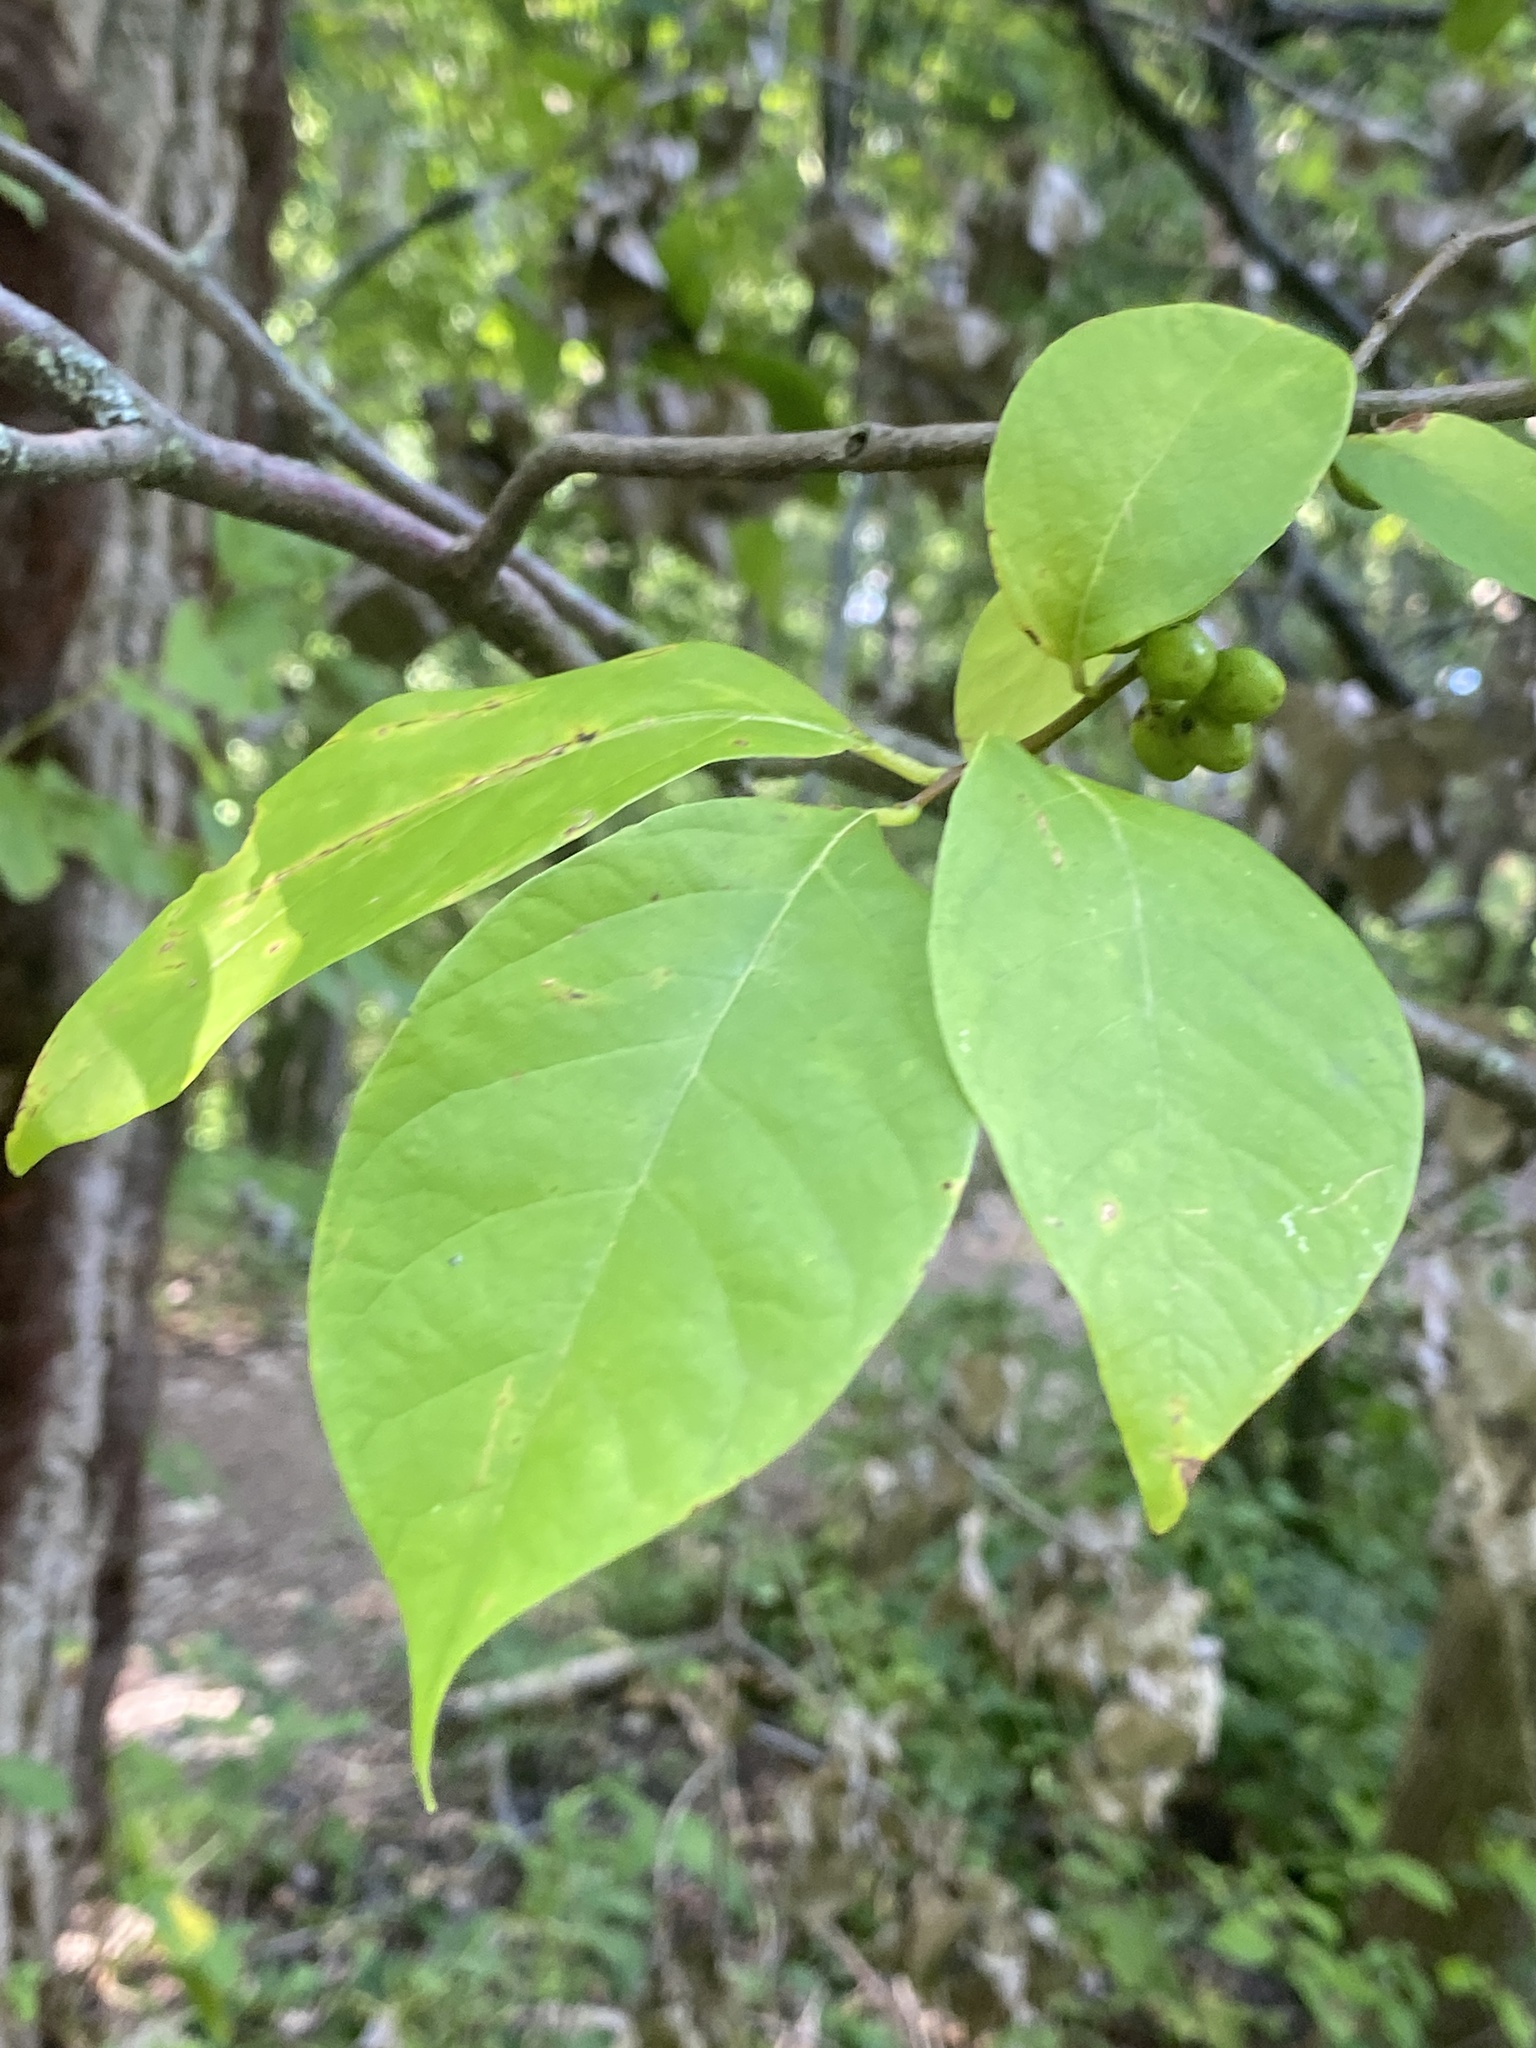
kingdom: Plantae
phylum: Tracheophyta
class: Magnoliopsida
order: Laurales
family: Lauraceae
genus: Lindera
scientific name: Lindera benzoin
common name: Spicebush
